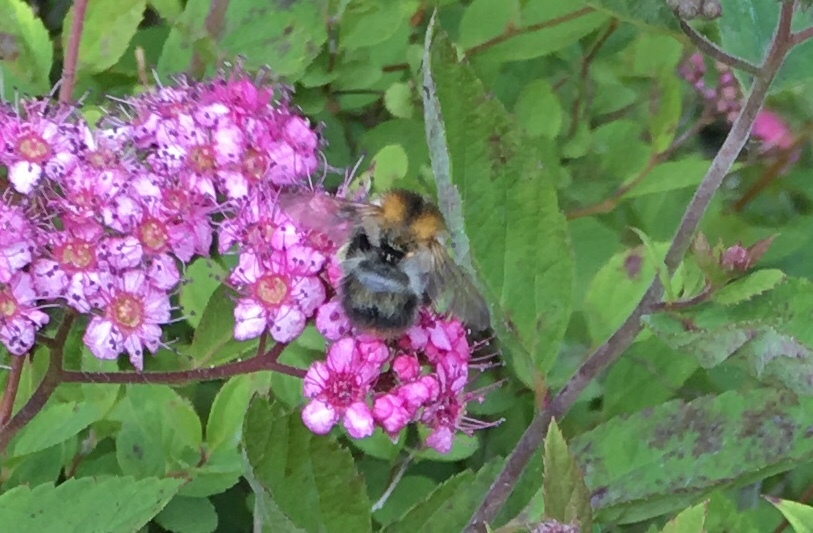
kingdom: Animalia
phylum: Arthropoda
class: Insecta
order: Hymenoptera
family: Apidae
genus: Bombus
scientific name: Bombus pascuorum
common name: Common carder bee
